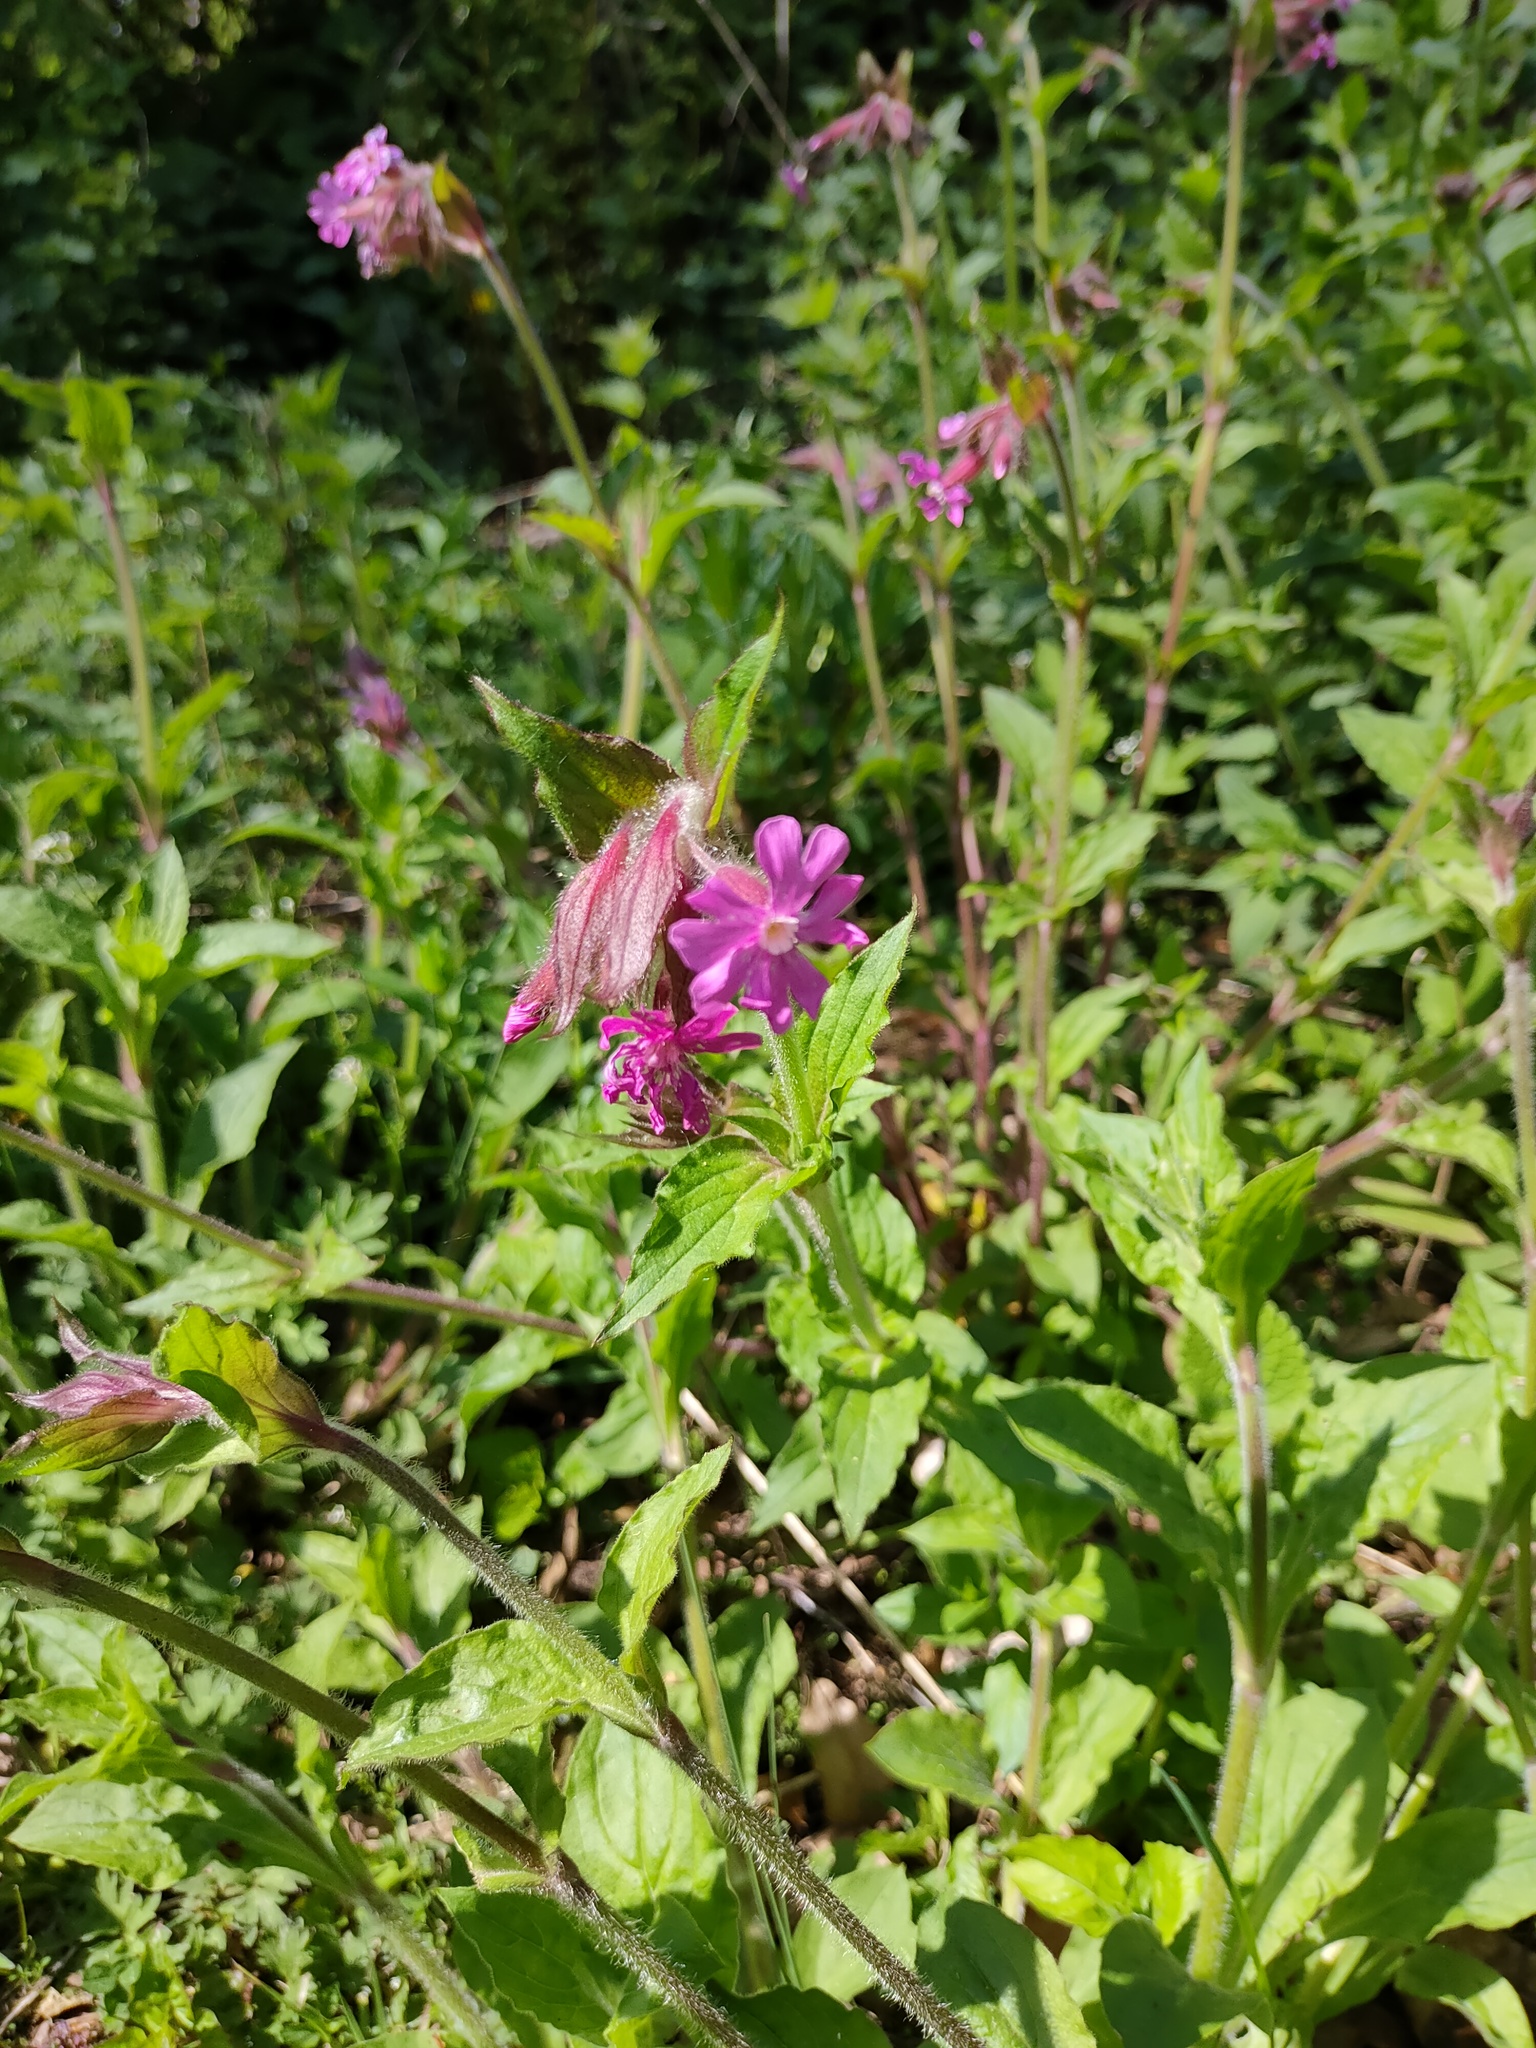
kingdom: Plantae
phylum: Tracheophyta
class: Magnoliopsida
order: Caryophyllales
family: Caryophyllaceae
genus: Silene
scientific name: Silene dioica
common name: Red campion
